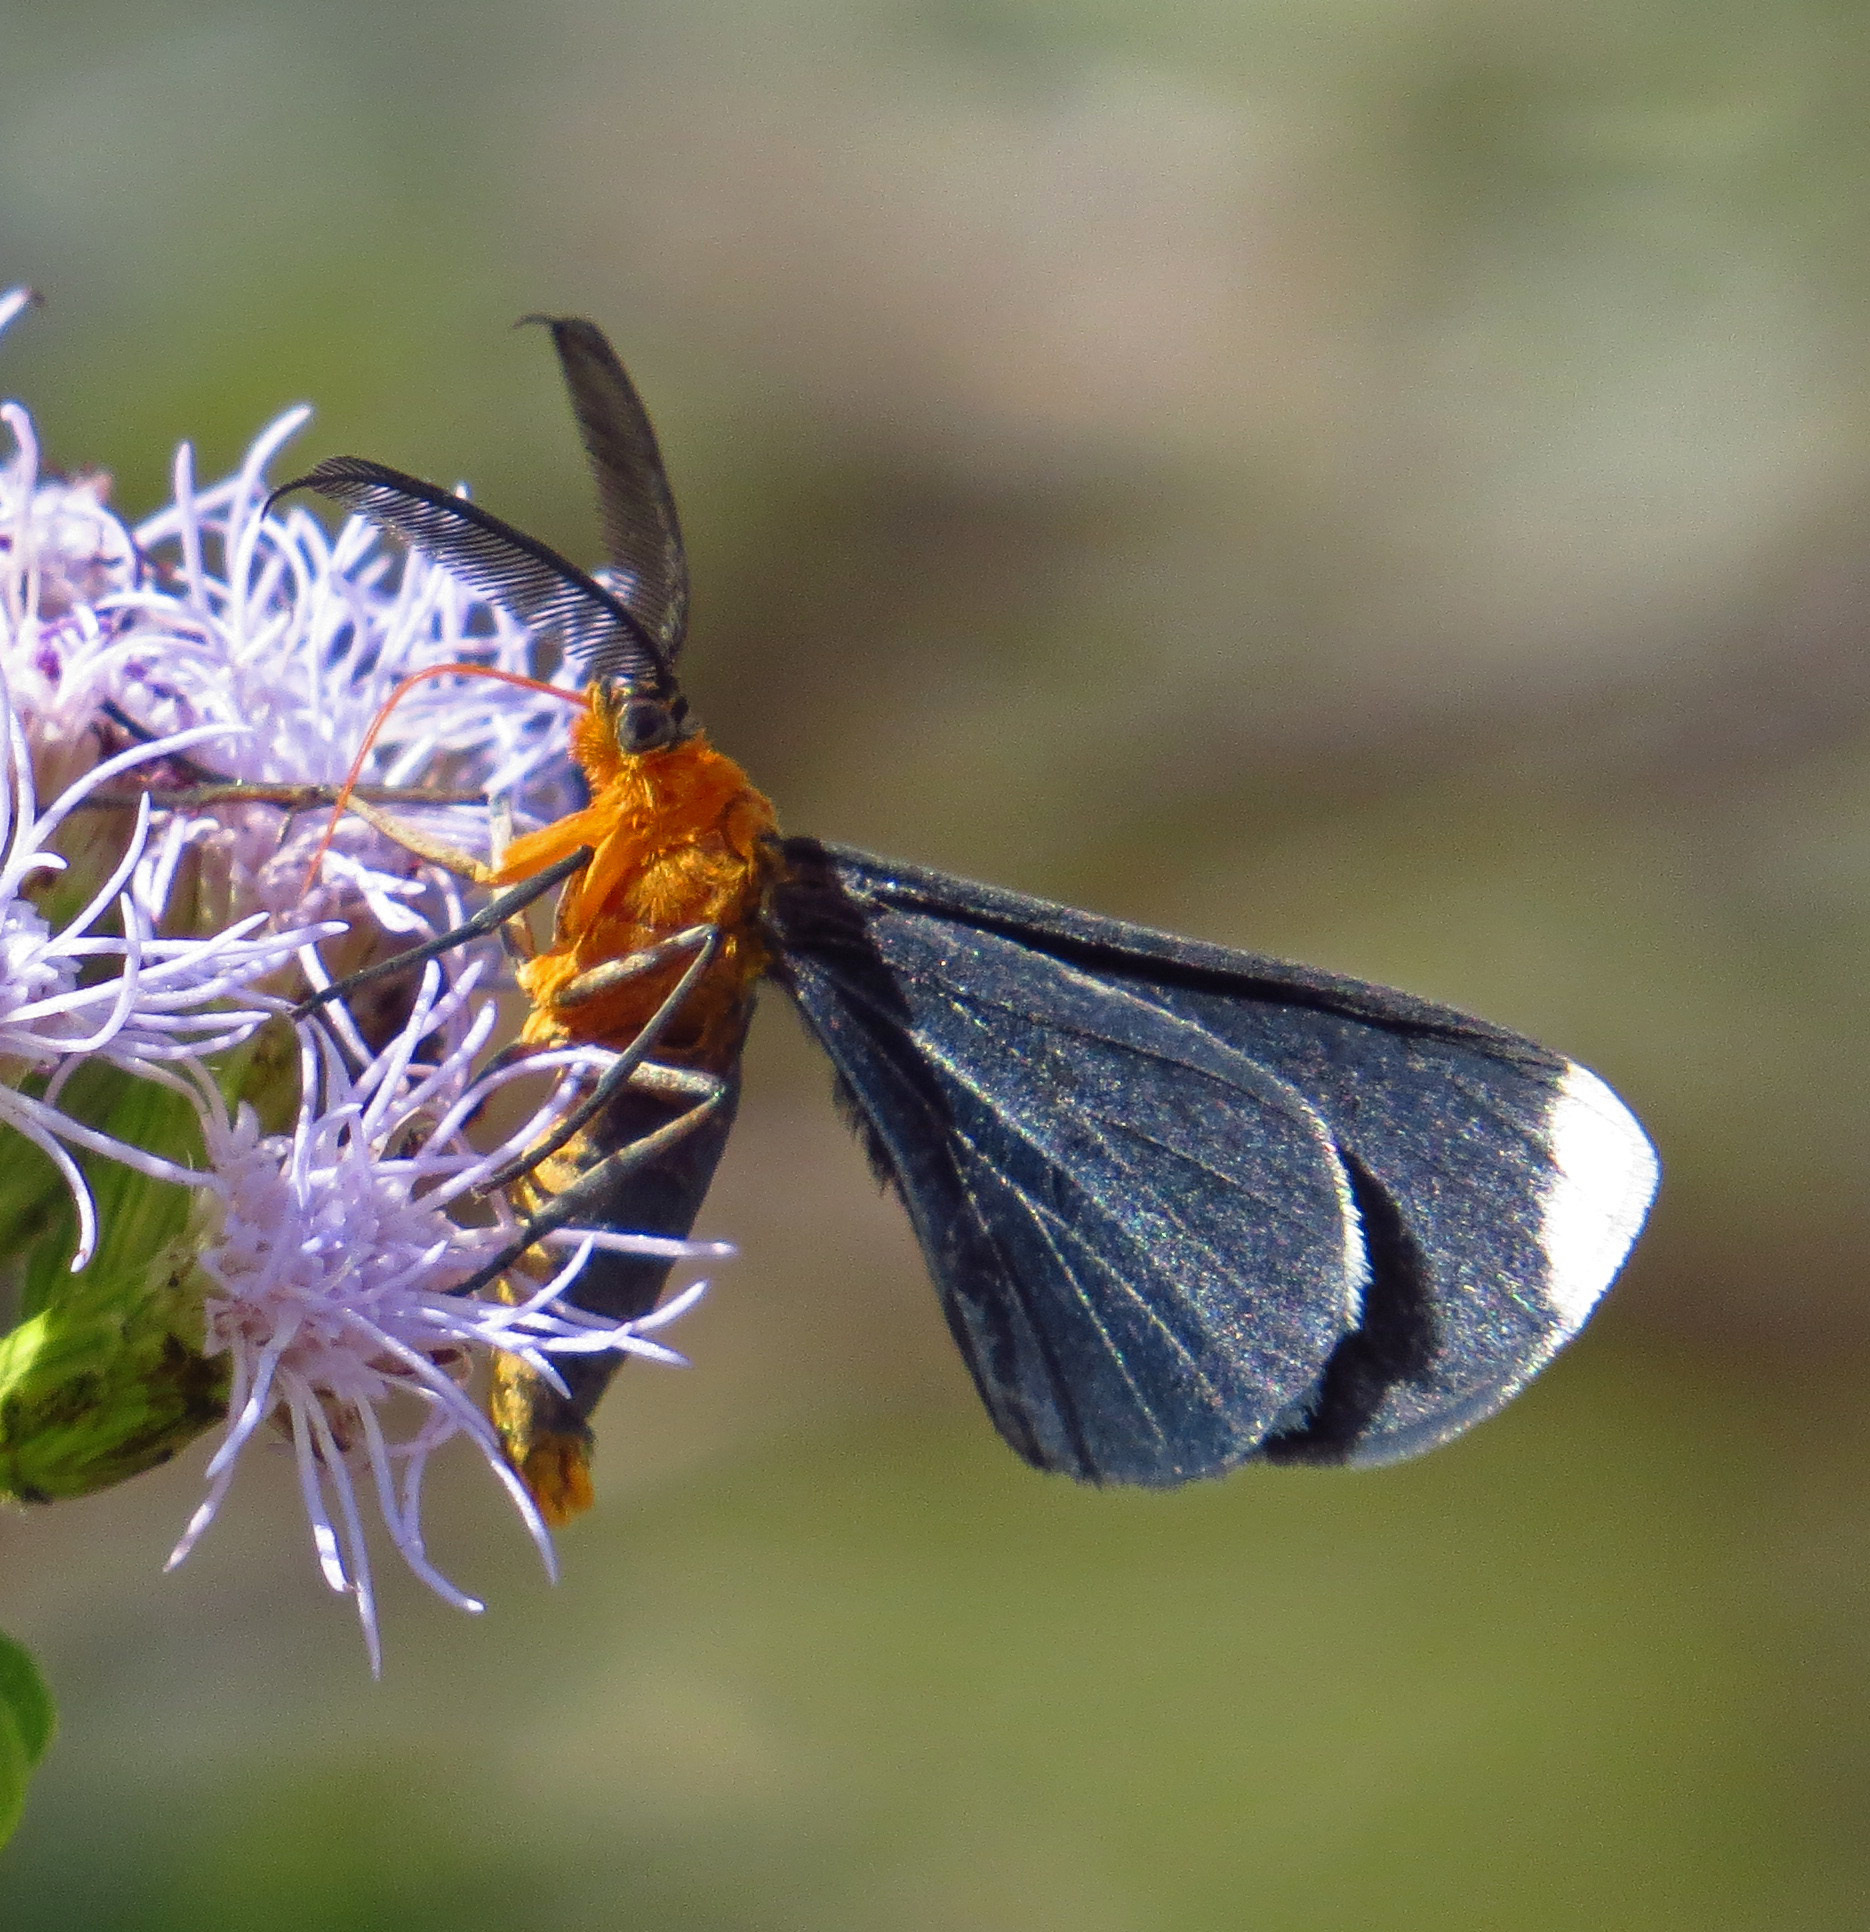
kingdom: Animalia
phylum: Arthropoda
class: Insecta
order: Lepidoptera
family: Geometridae
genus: Melanchroia
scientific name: Melanchroia chephise
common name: White-tipped black
